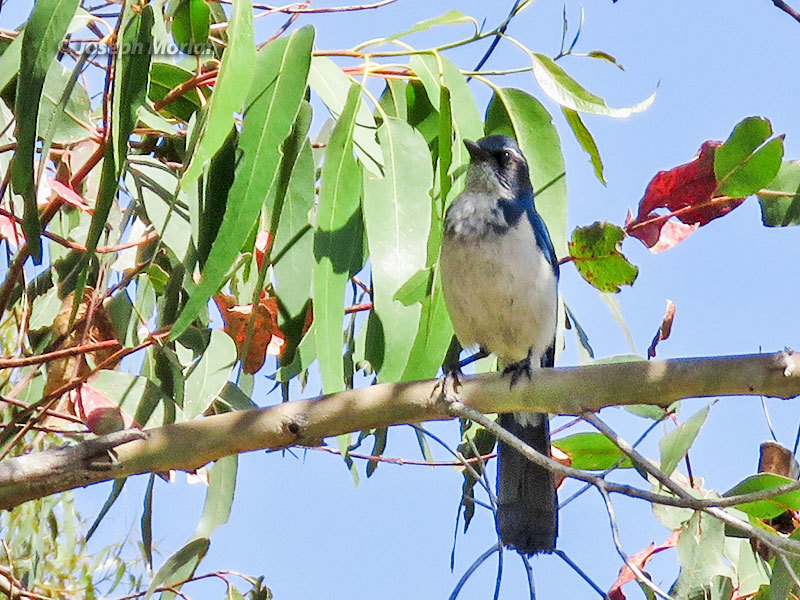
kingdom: Animalia
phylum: Chordata
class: Aves
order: Passeriformes
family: Corvidae
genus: Aphelocoma
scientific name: Aphelocoma californica
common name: California scrub-jay
